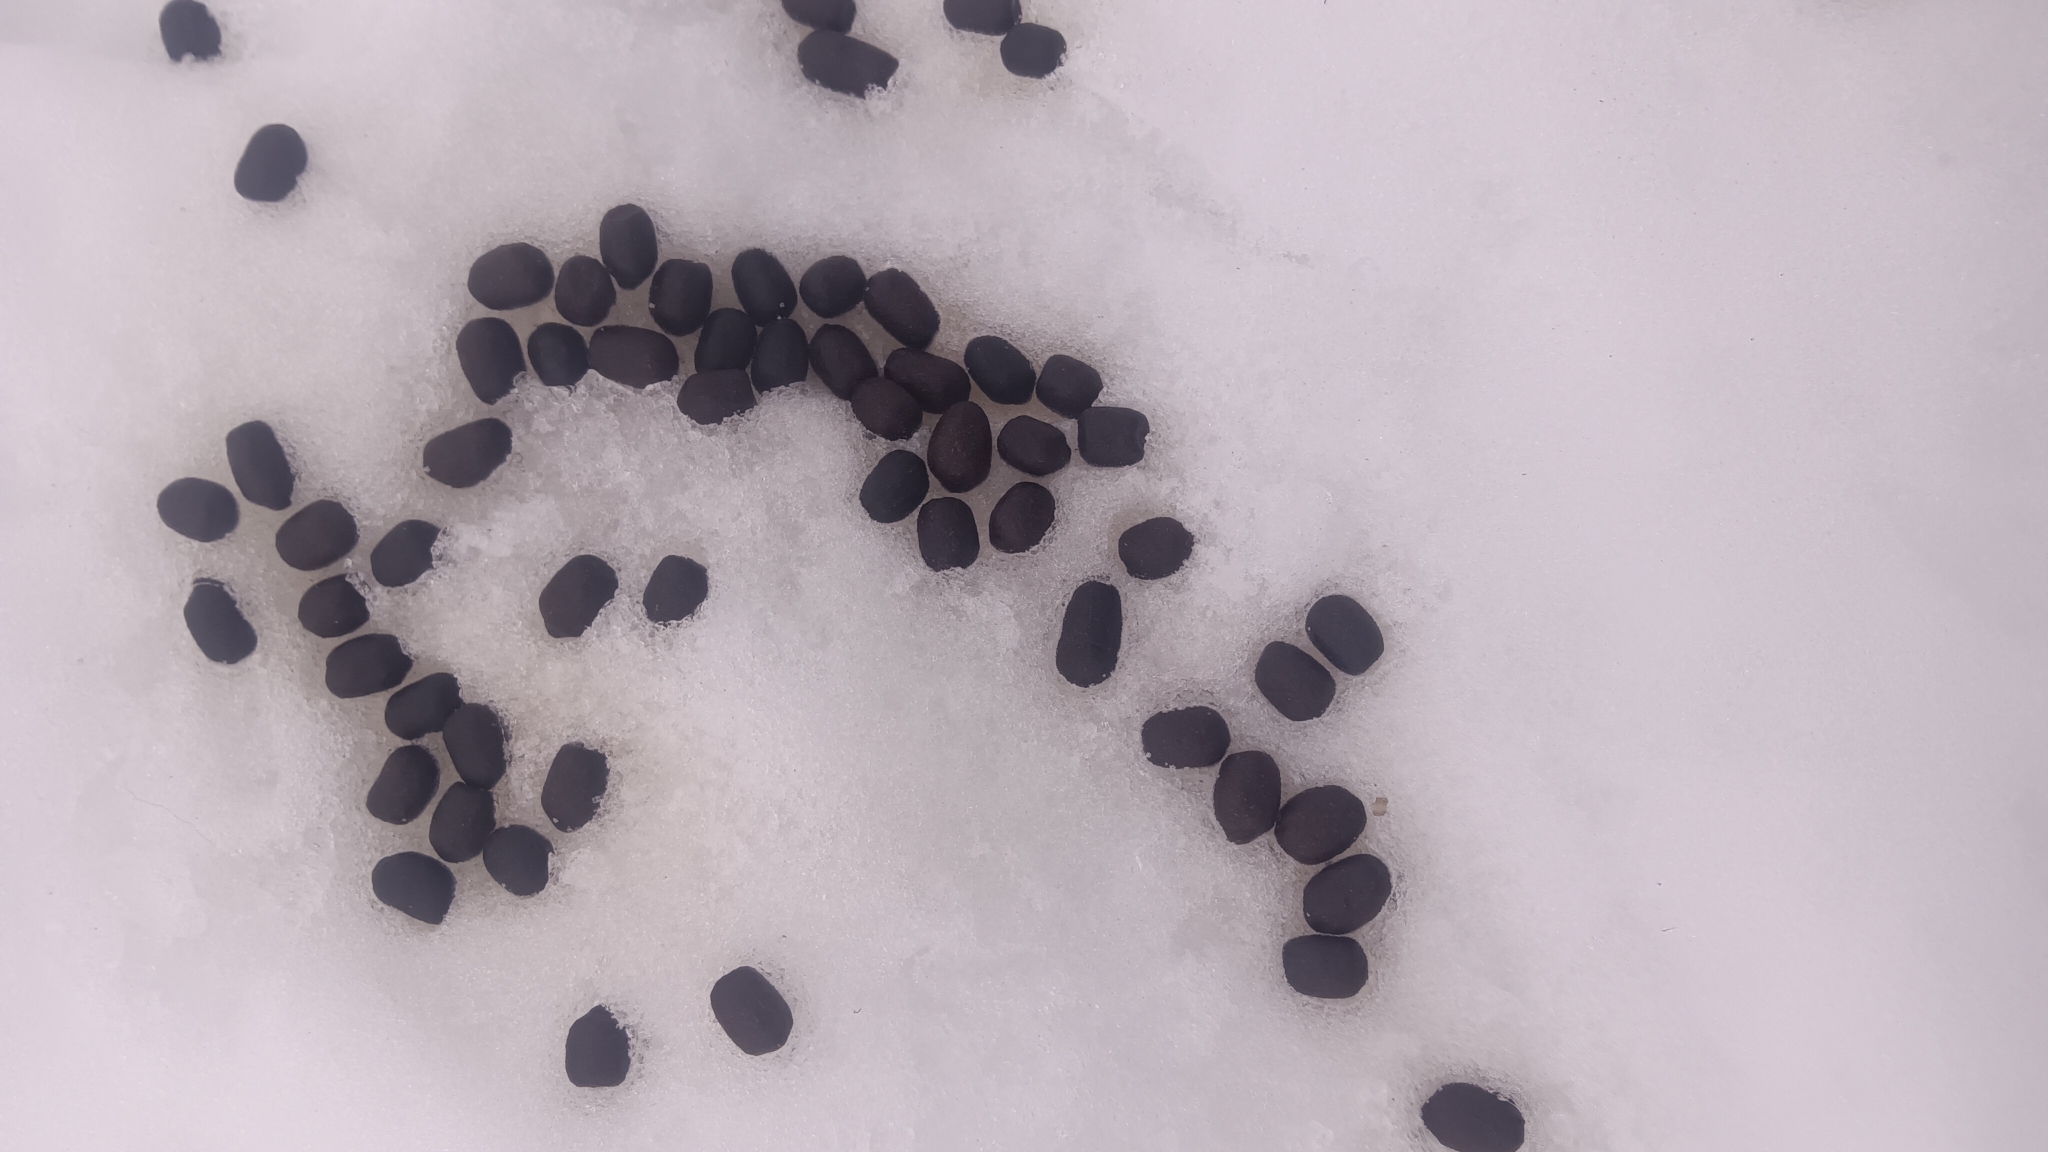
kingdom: Animalia
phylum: Chordata
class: Mammalia
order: Artiodactyla
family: Cervidae
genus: Odocoileus
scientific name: Odocoileus virginianus
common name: White-tailed deer
